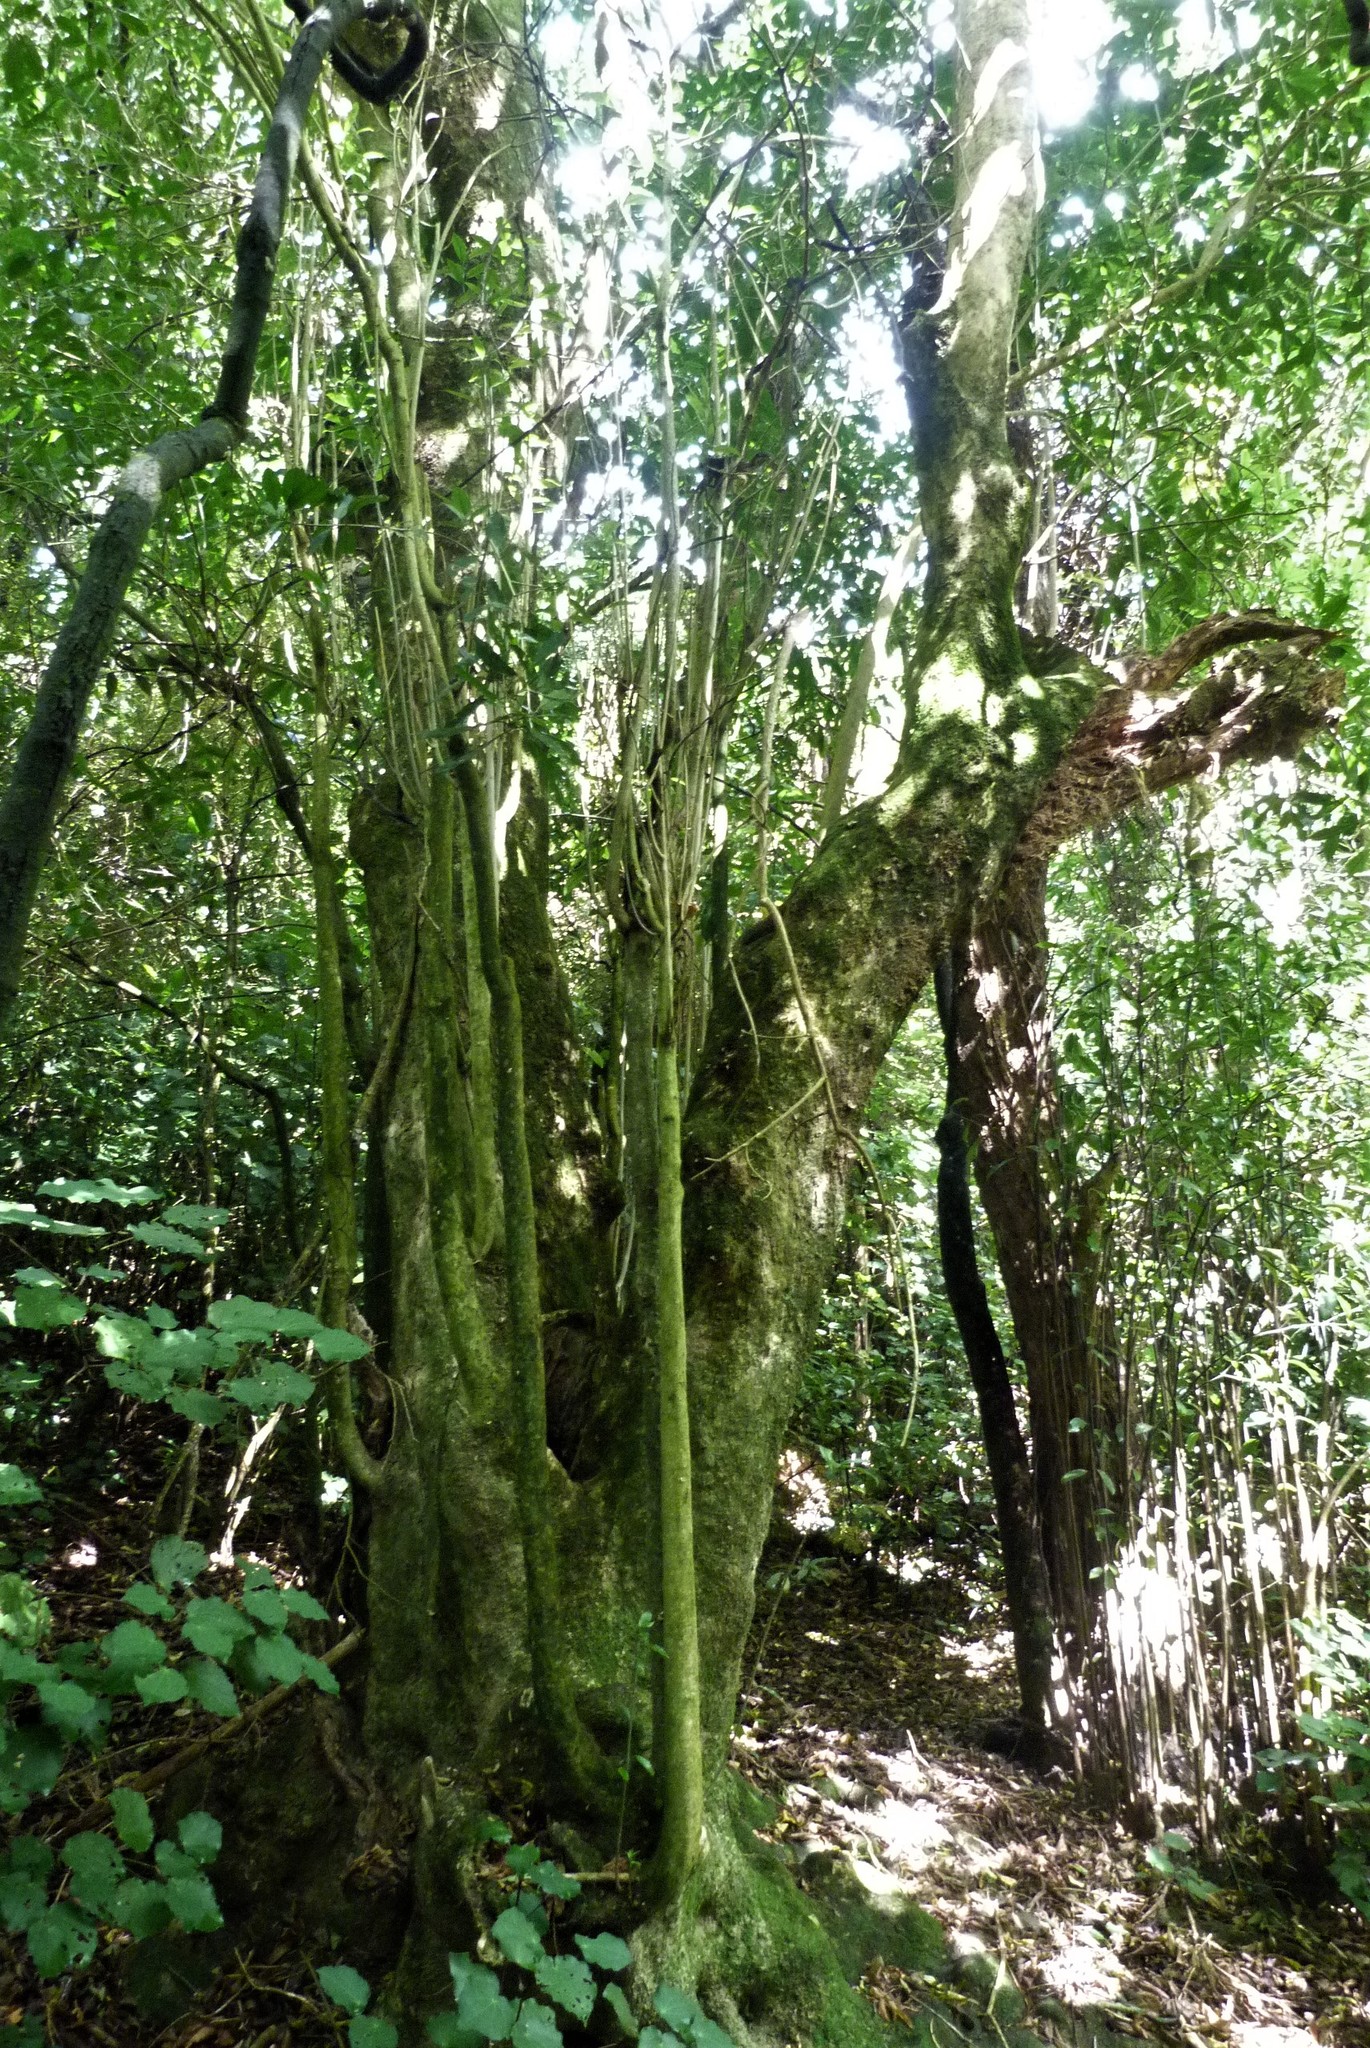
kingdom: Plantae
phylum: Tracheophyta
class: Magnoliopsida
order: Malpighiales
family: Violaceae
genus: Melicytus
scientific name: Melicytus ramiflorus
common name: Mahoe
